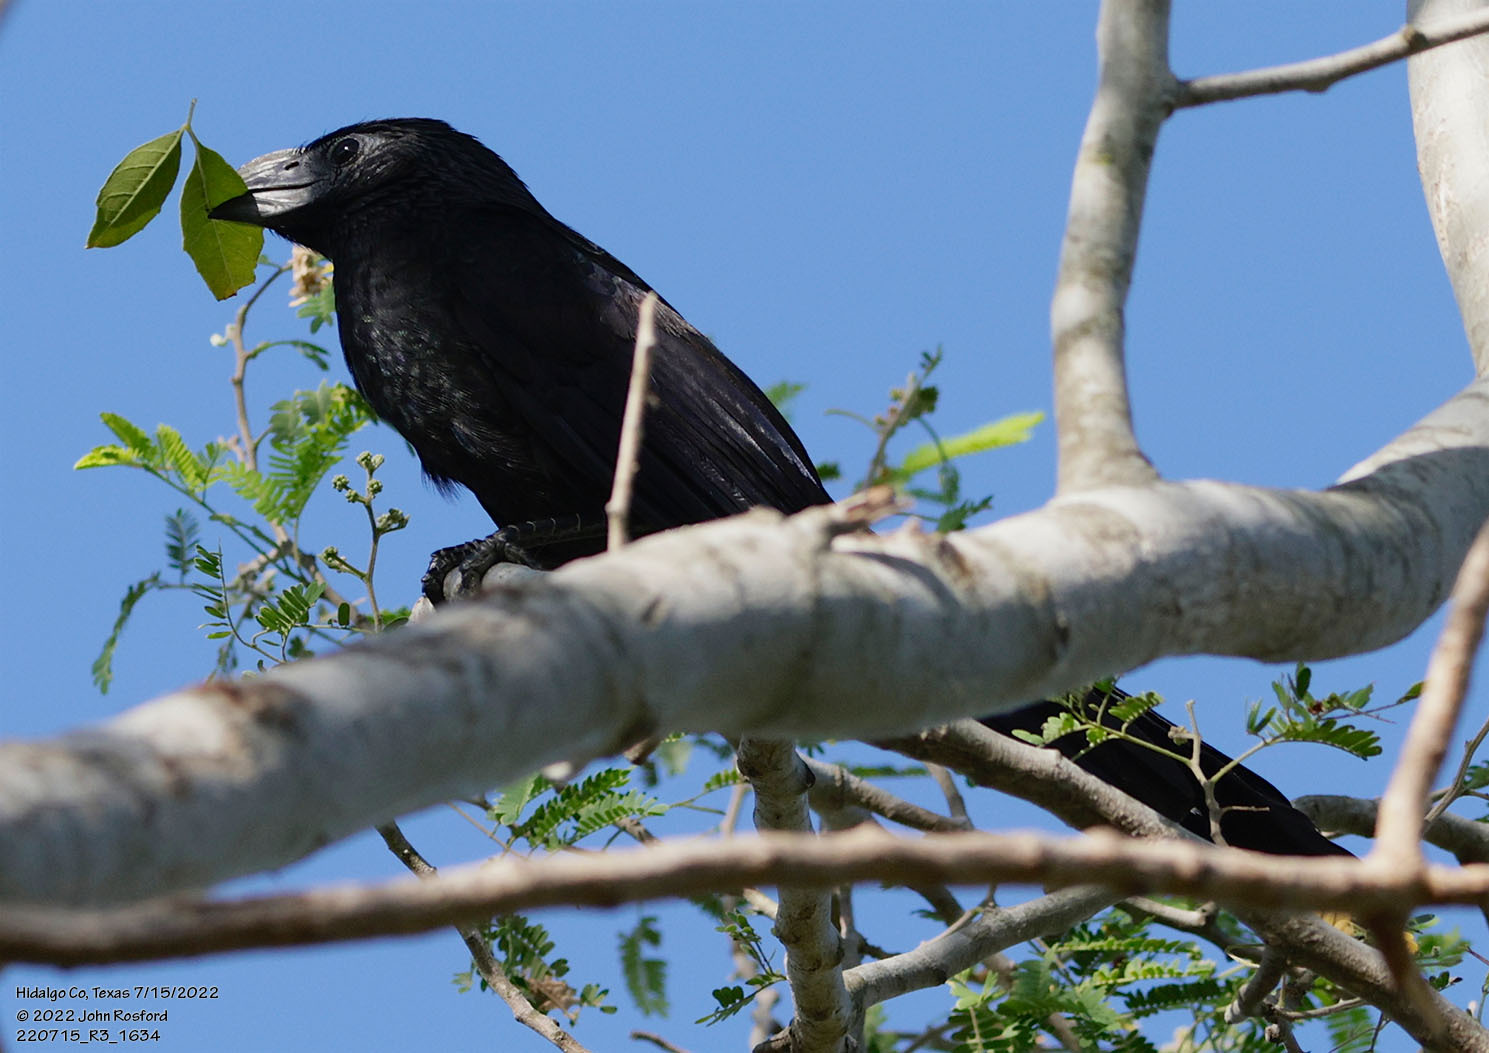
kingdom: Animalia
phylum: Chordata
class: Aves
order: Cuculiformes
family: Cuculidae
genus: Crotophaga
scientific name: Crotophaga sulcirostris
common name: Groove-billed ani
